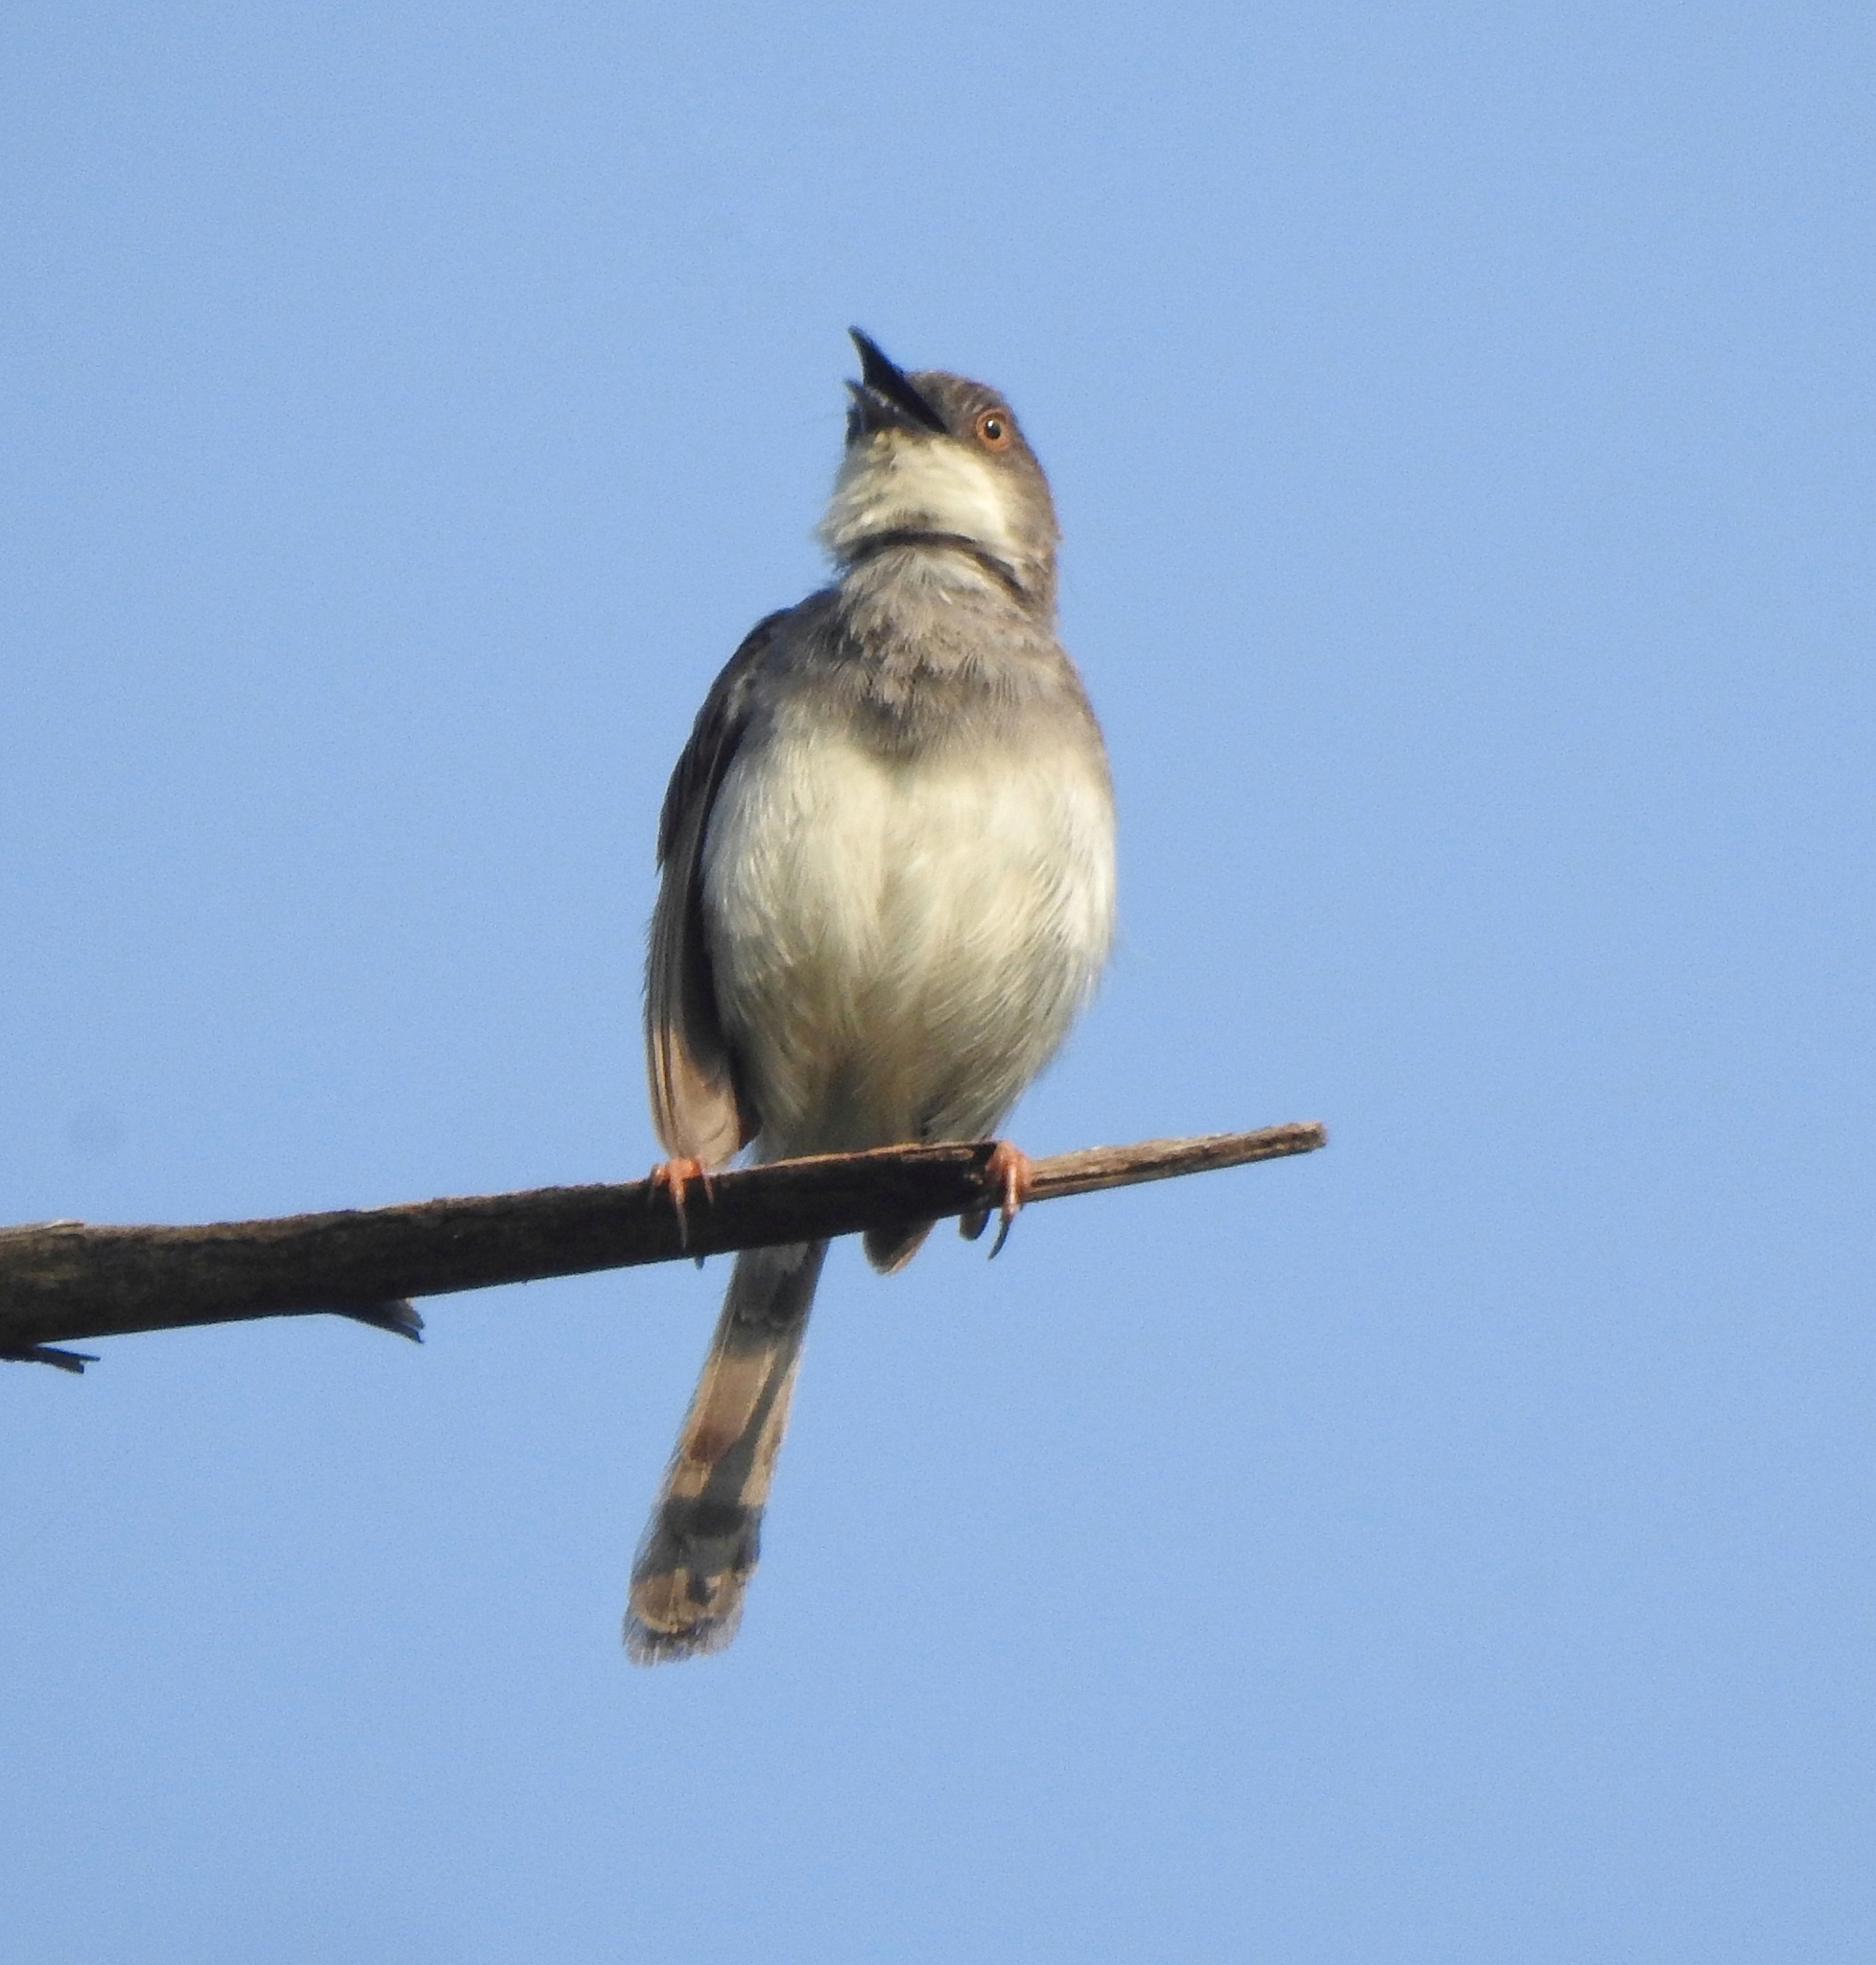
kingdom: Animalia
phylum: Chordata
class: Aves
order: Passeriformes
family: Cisticolidae
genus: Prinia
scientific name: Prinia hodgsonii
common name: Grey-breasted prinia
